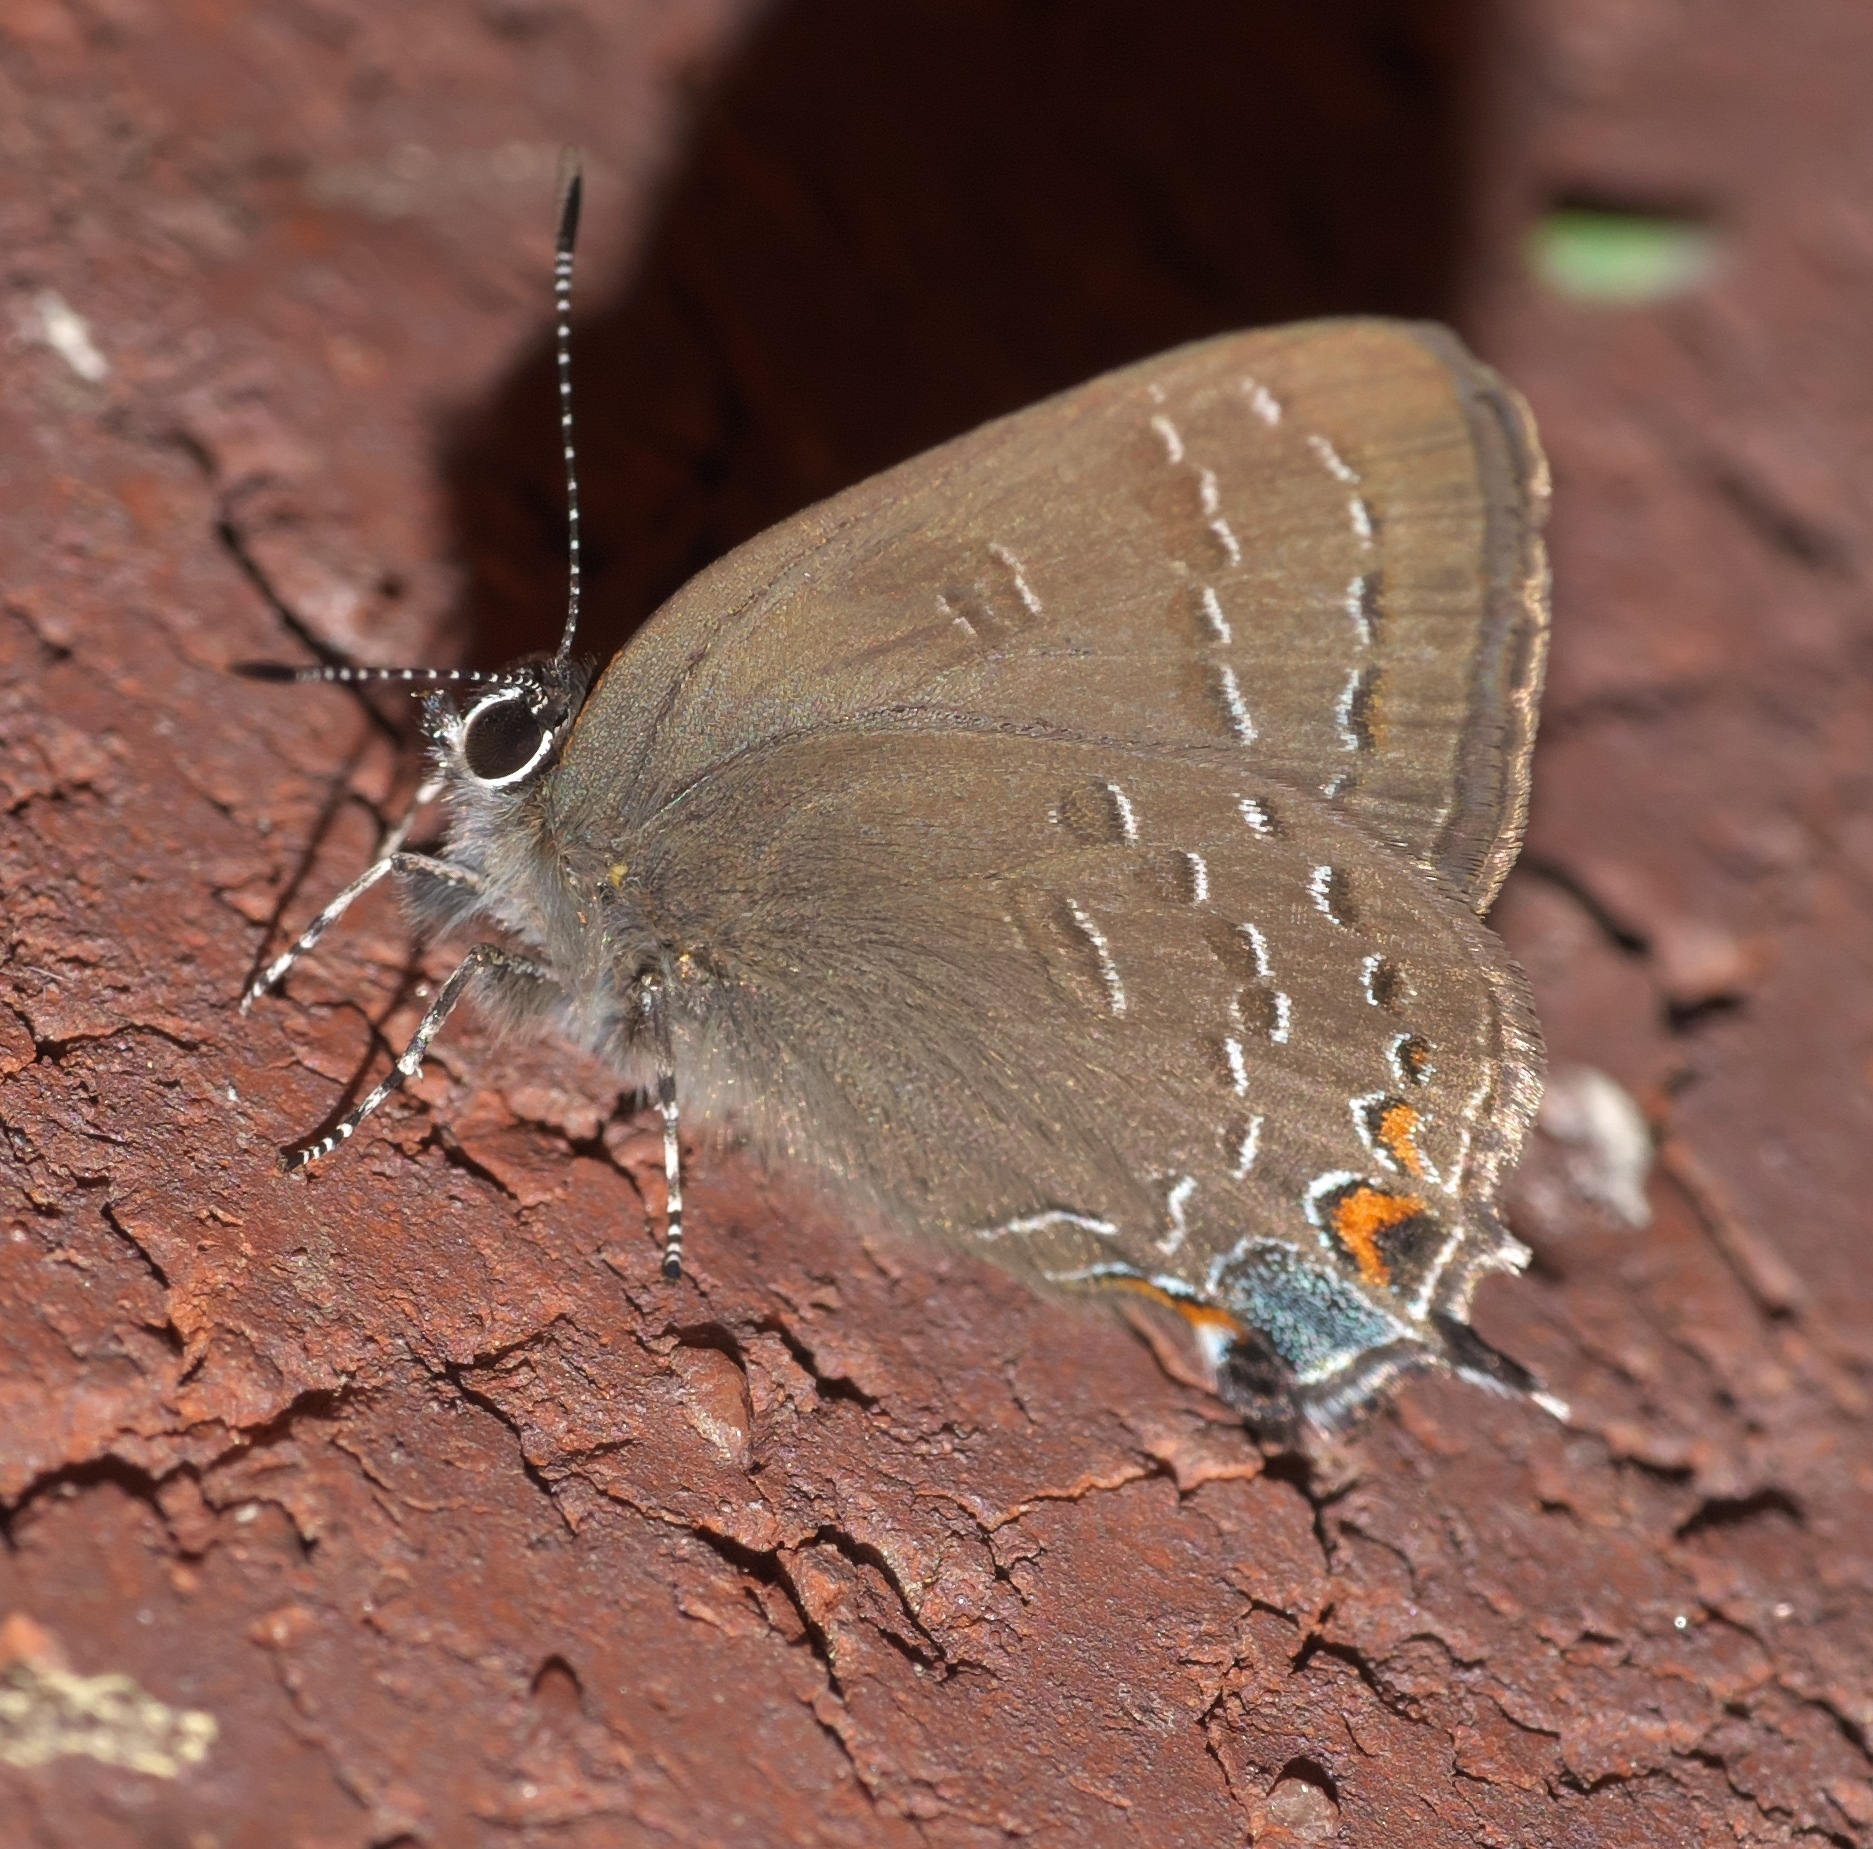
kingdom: Animalia
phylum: Arthropoda
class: Insecta
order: Lepidoptera
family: Lycaenidae
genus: Satyrium
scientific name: Satyrium calanus
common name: Banded hairstreak
